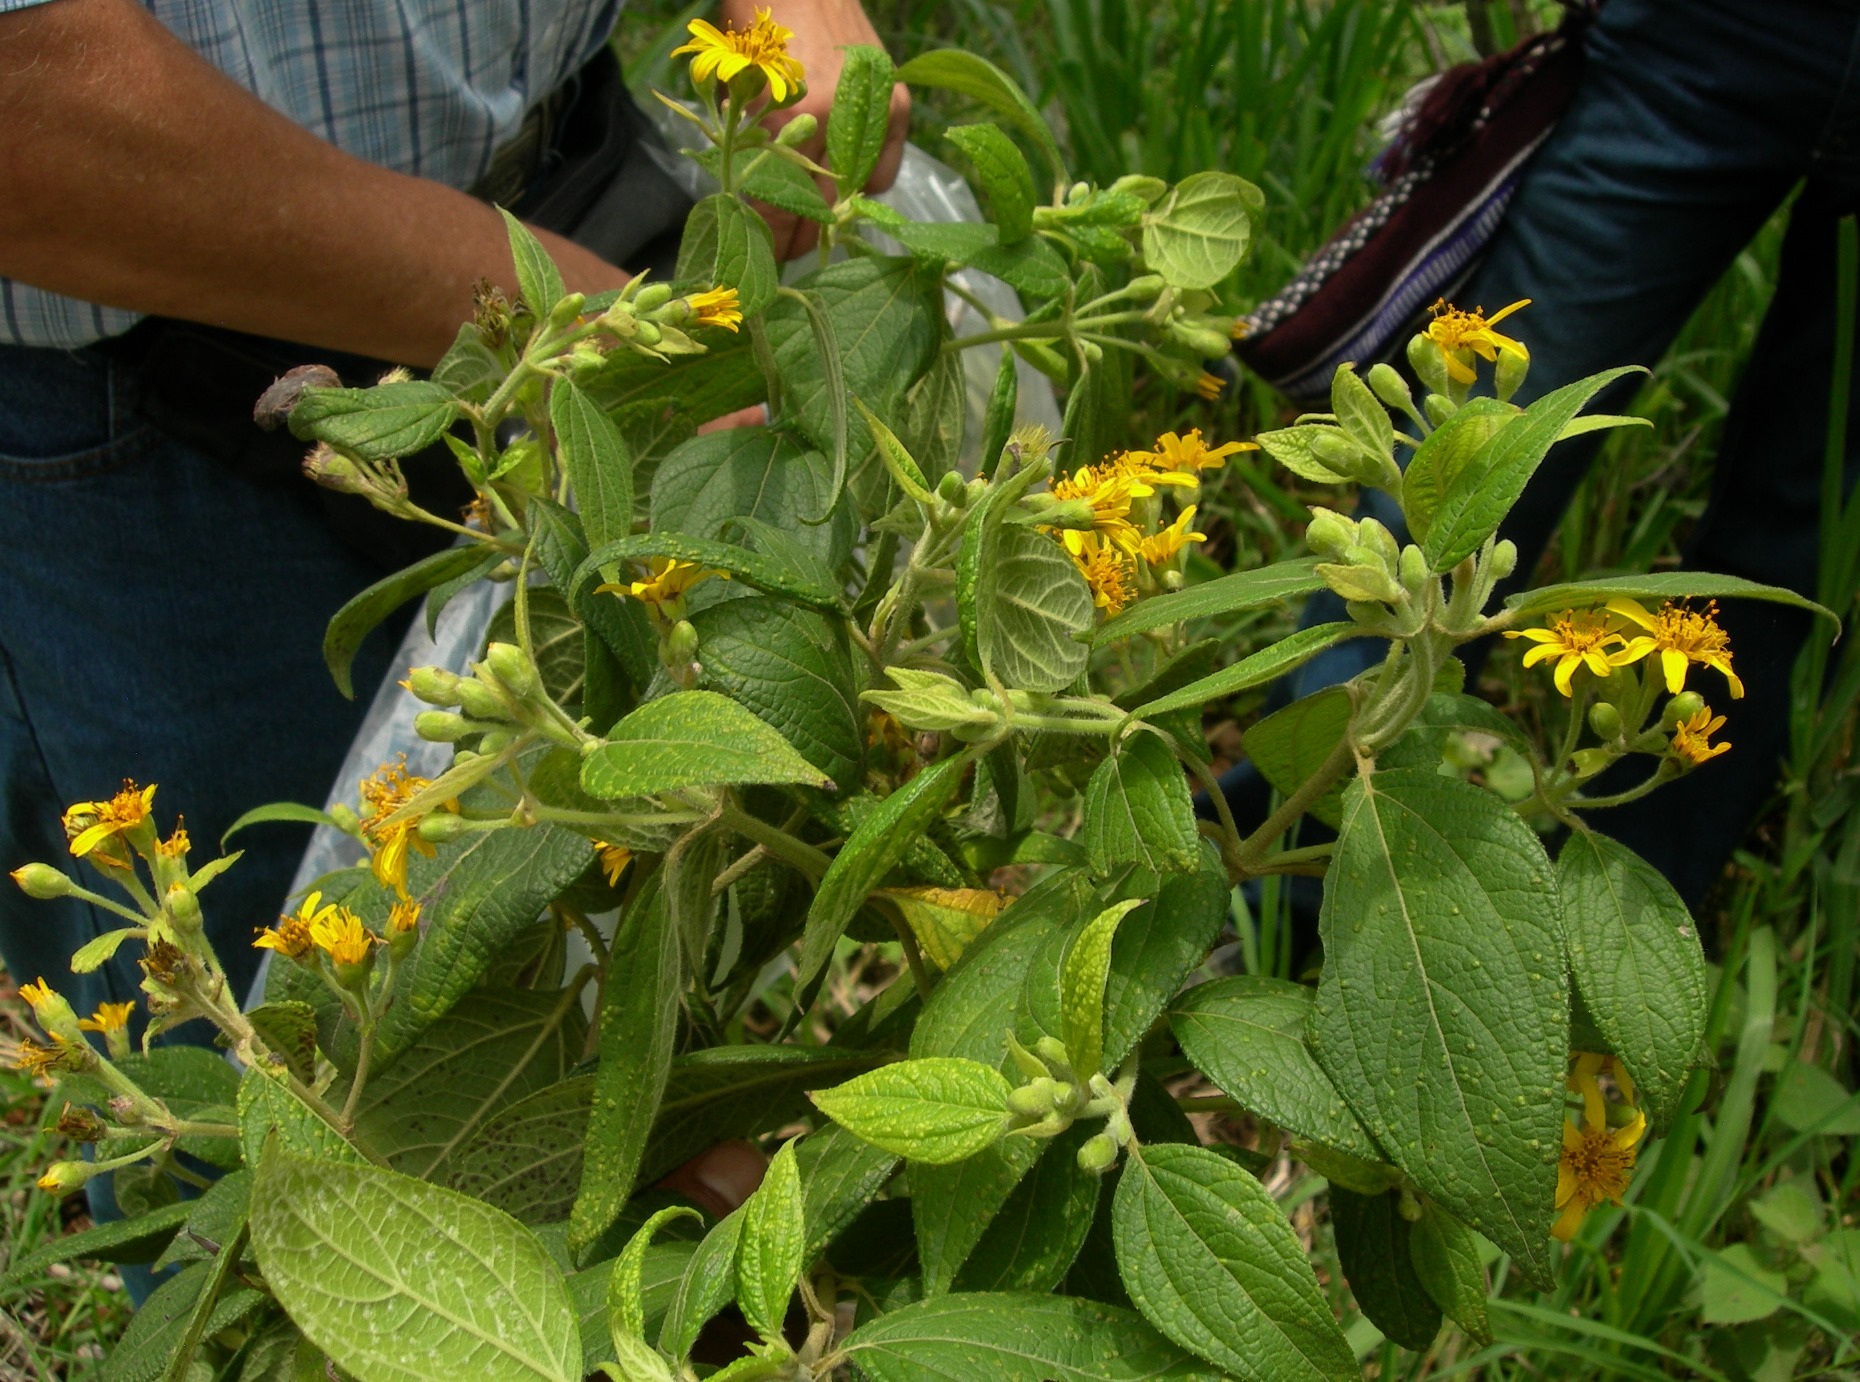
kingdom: Plantae
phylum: Tracheophyta
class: Magnoliopsida
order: Asterales
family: Asteraceae
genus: Perymenium
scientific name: Perymenium grande
